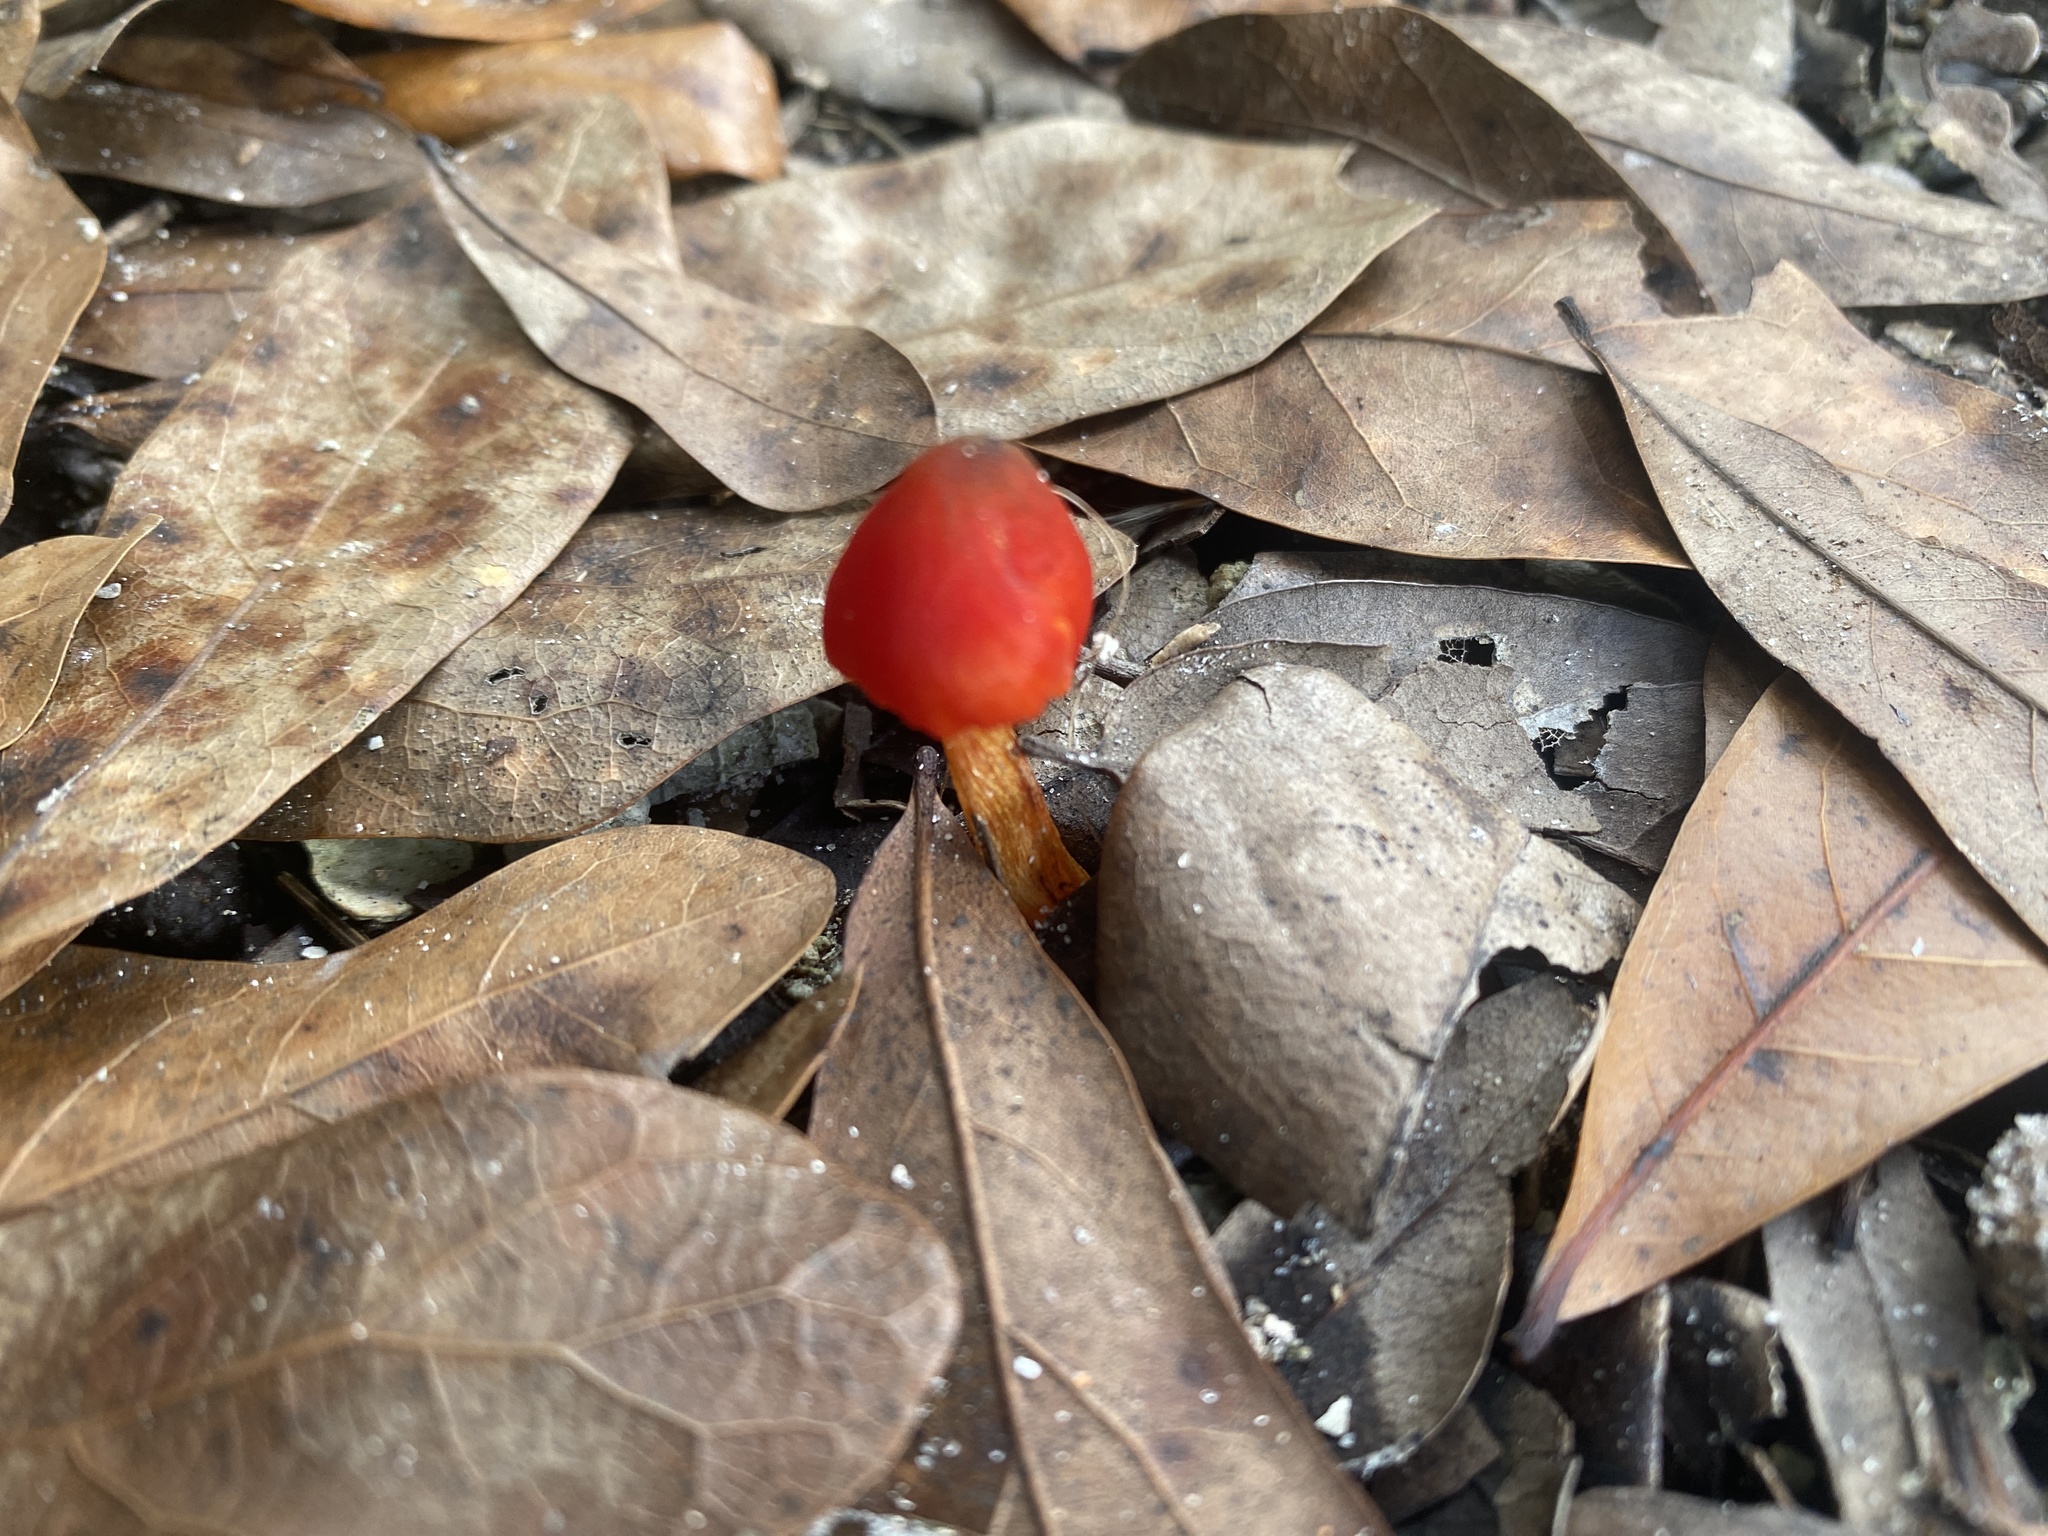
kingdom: Fungi
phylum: Basidiomycota
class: Agaricomycetes
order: Agaricales
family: Hygrophoraceae
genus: Hygrocybe
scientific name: Hygrocybe conica
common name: Blackening wax-cap
